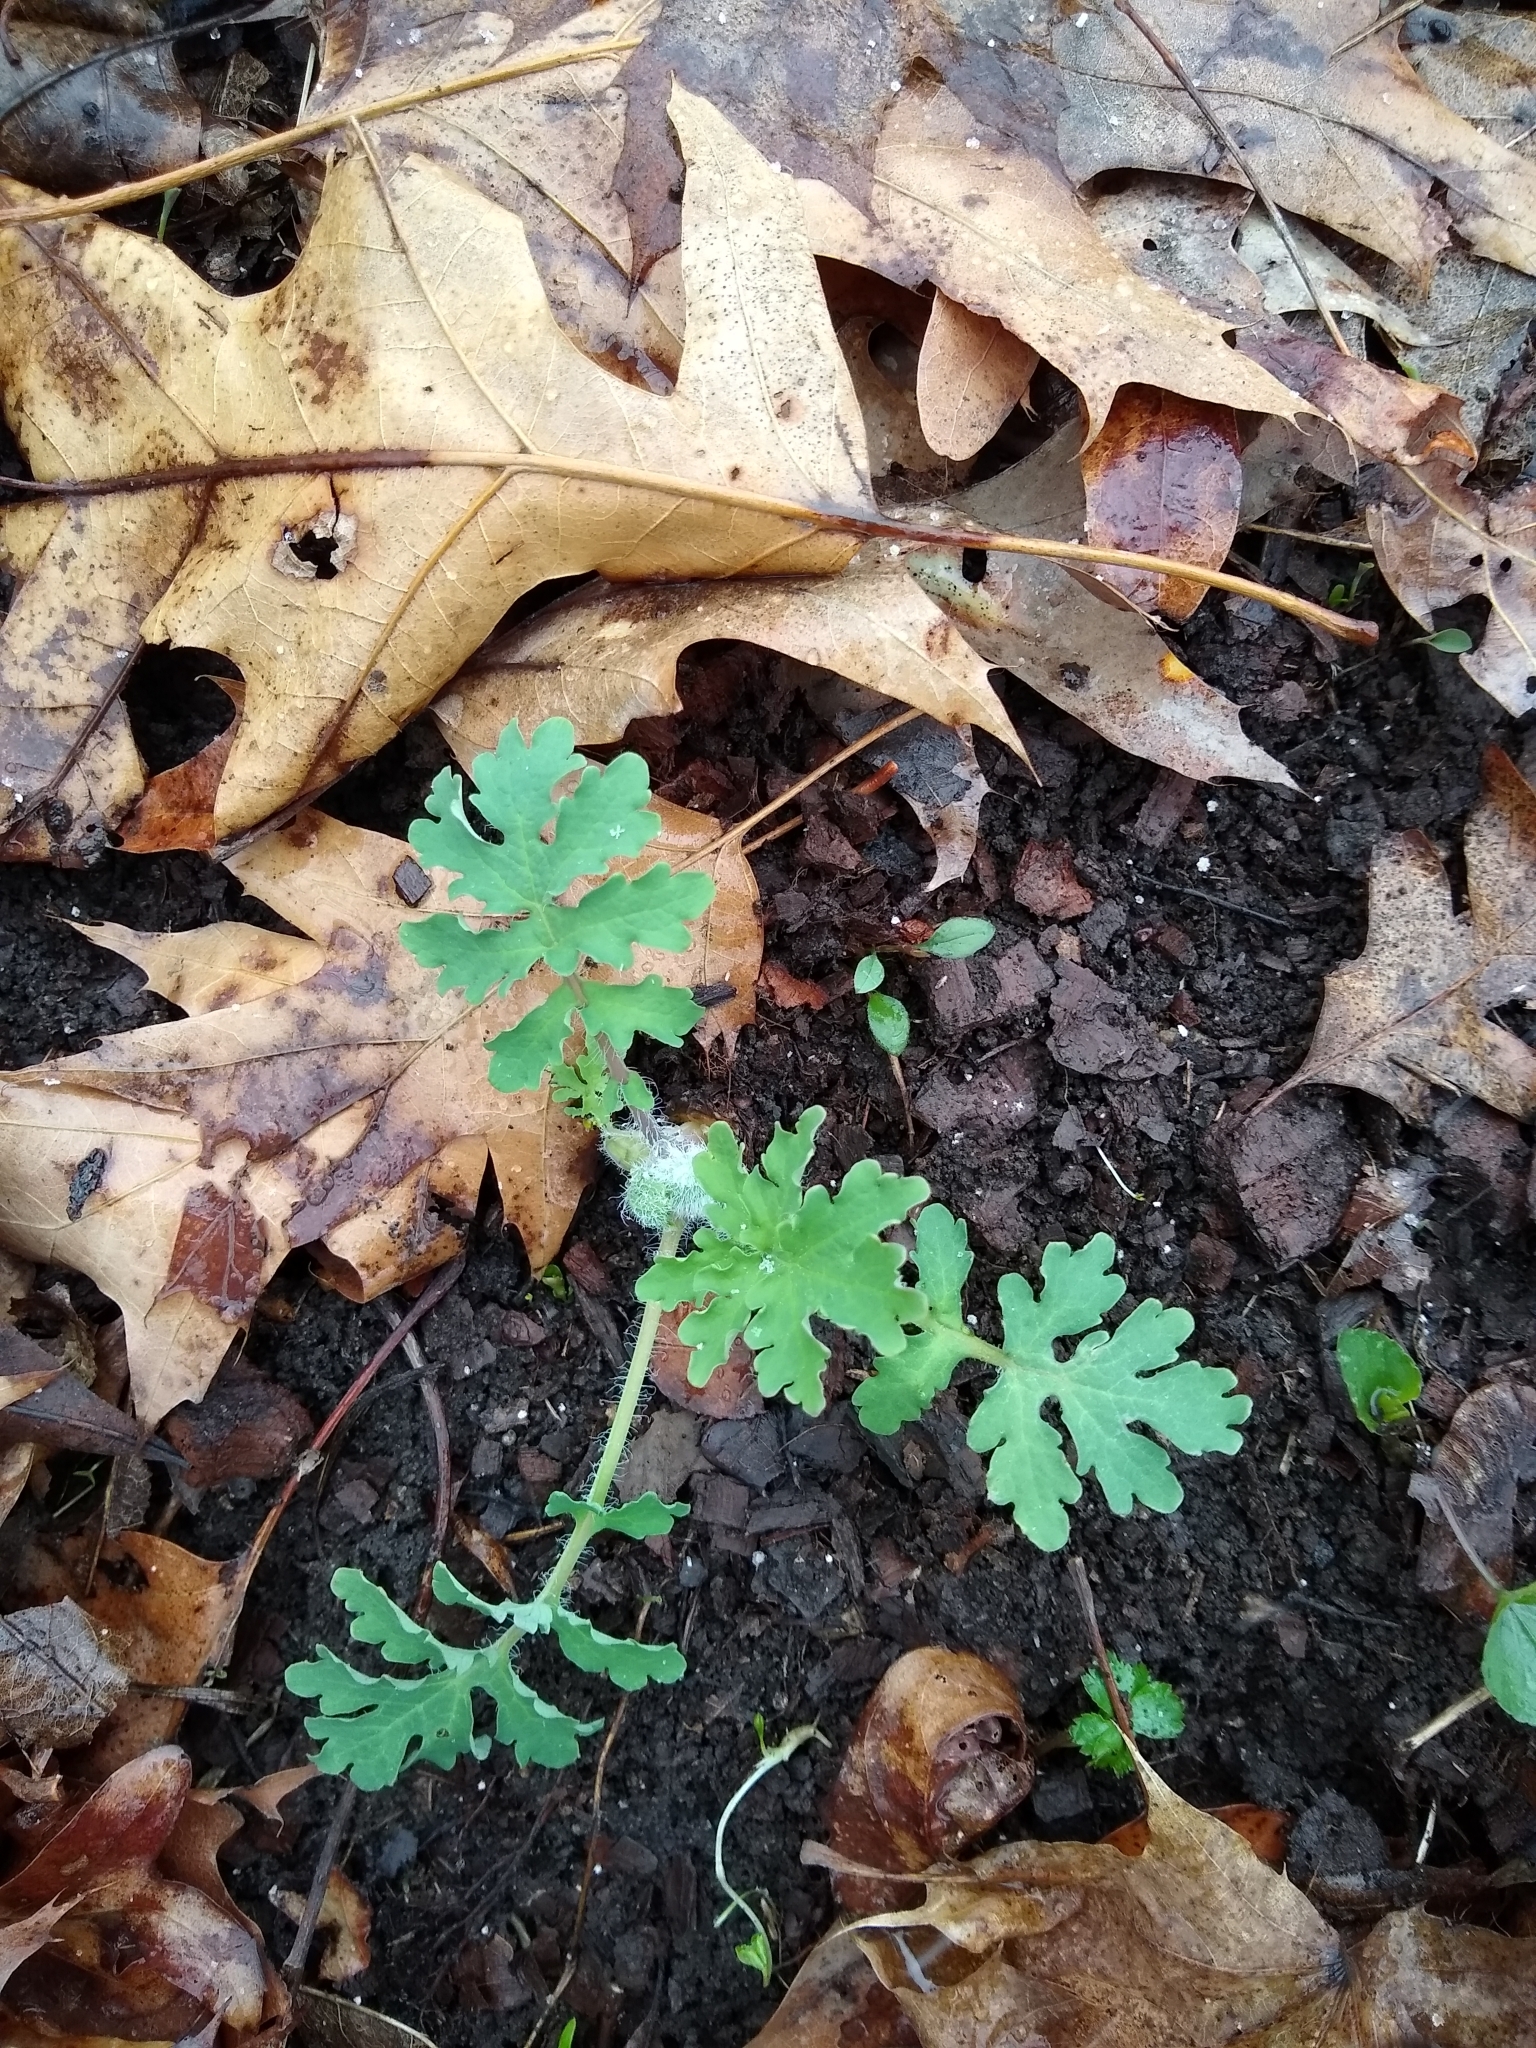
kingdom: Plantae
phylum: Tracheophyta
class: Magnoliopsida
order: Ranunculales
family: Papaveraceae
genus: Stylophorum
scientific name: Stylophorum diphyllum
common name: Celandine poppy
